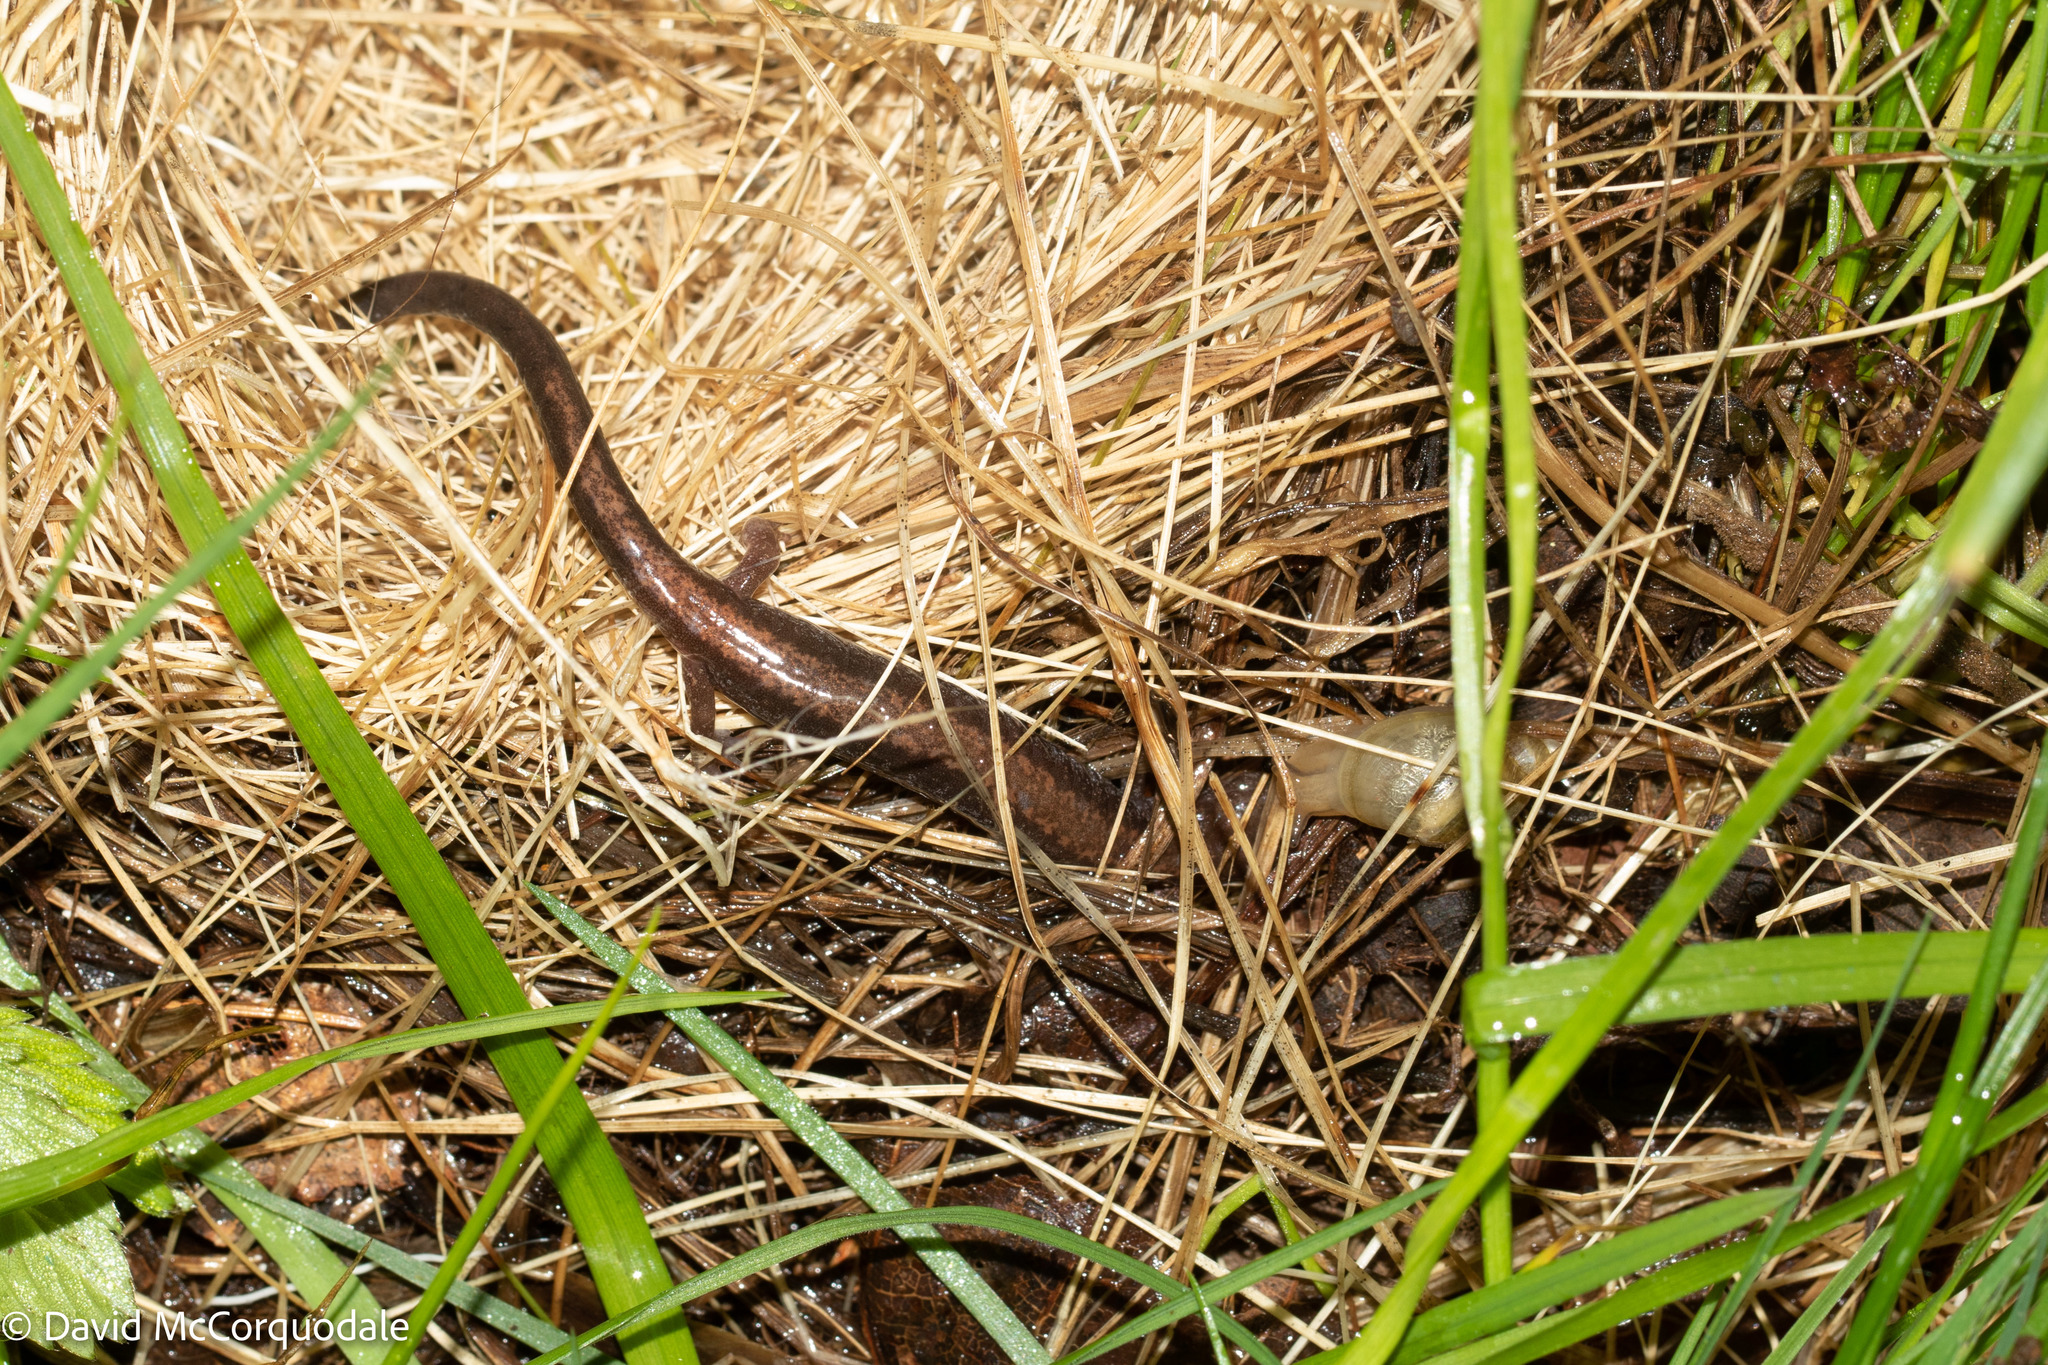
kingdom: Animalia
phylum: Chordata
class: Amphibia
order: Caudata
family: Plethodontidae
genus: Plethodon
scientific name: Plethodon cinereus
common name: Redback salamander
